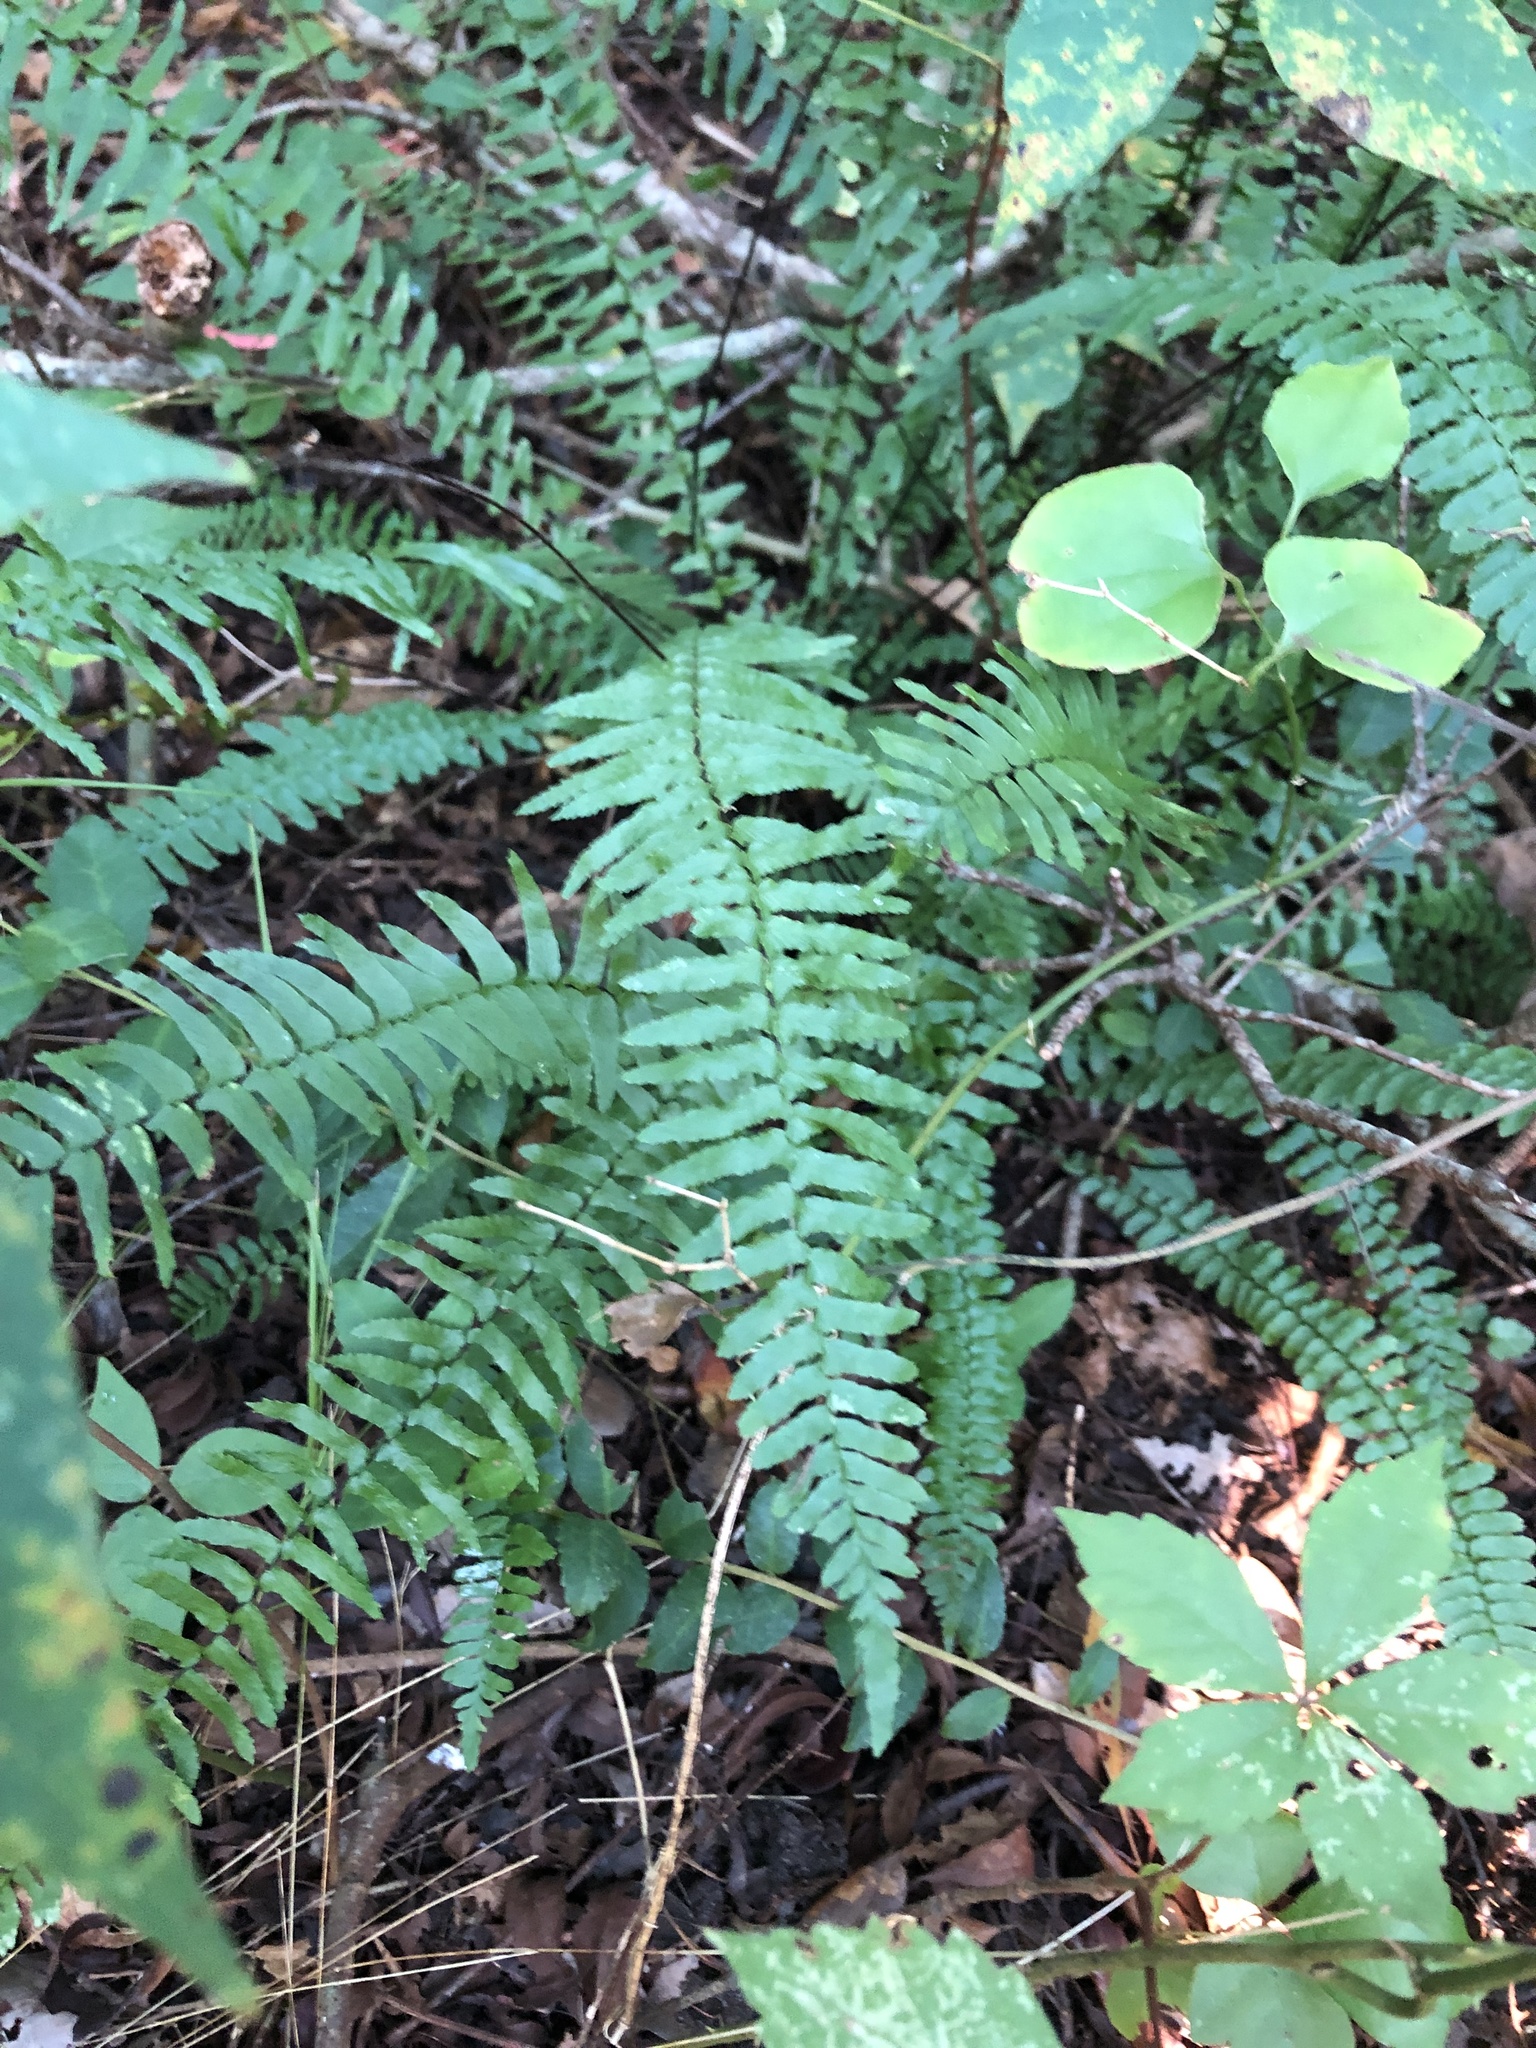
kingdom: Plantae
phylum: Tracheophyta
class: Polypodiopsida
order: Polypodiales
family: Aspleniaceae
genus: Asplenium
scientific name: Asplenium platyneuron
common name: Ebony spleenwort
